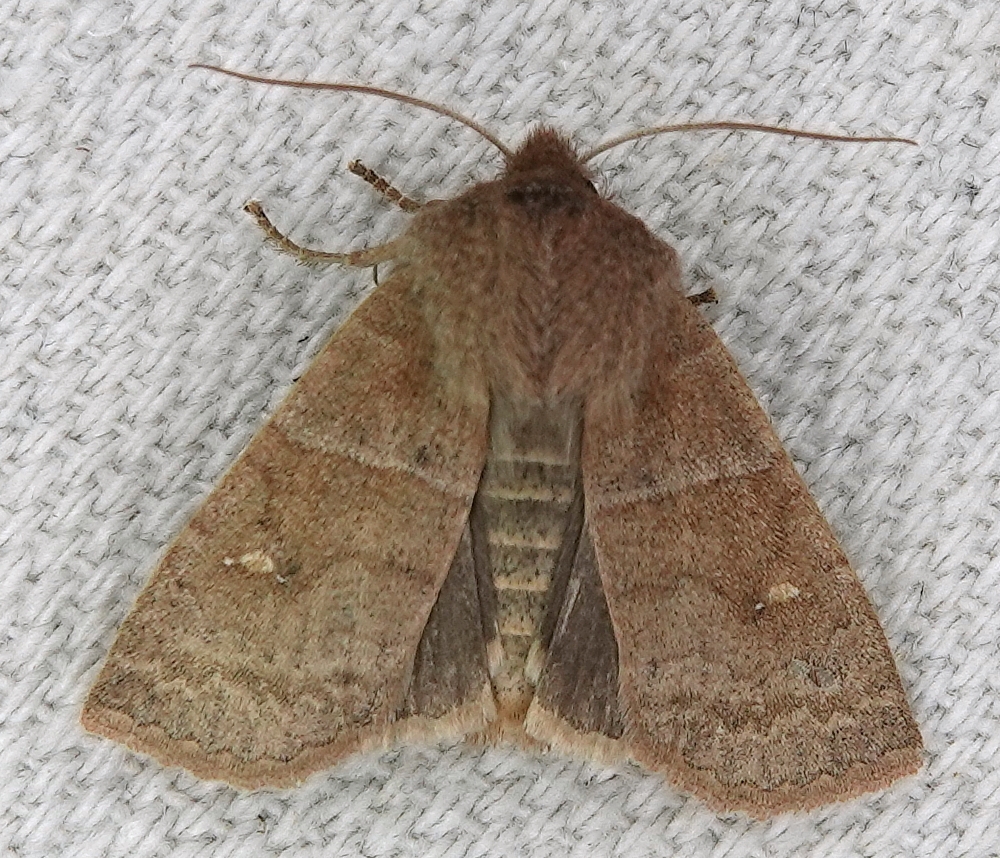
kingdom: Animalia
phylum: Arthropoda
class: Insecta
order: Lepidoptera
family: Noctuidae
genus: Eupsilia
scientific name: Eupsilia vinulenta
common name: Straight-toothed sallow
